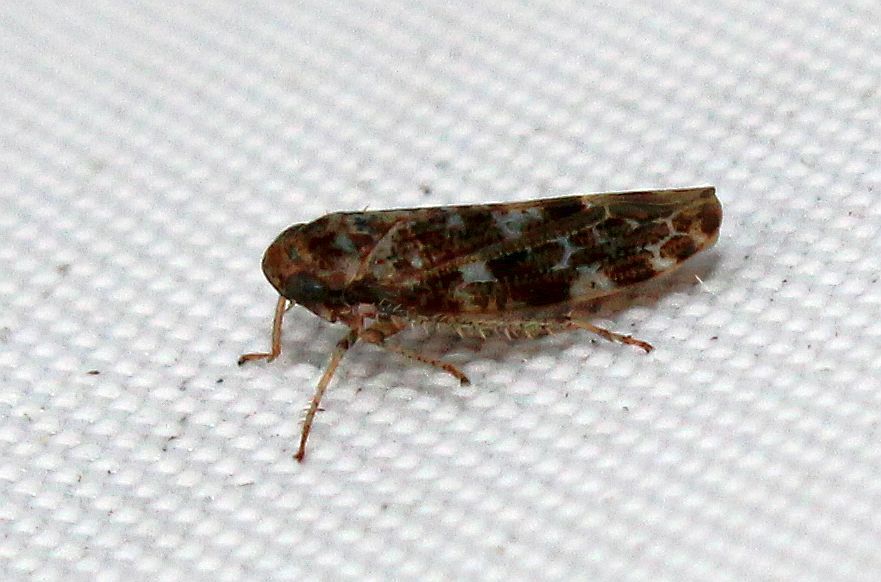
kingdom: Animalia
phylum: Arthropoda
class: Insecta
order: Hemiptera
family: Cicadellidae
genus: Allygus
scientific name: Allygus mixtus
